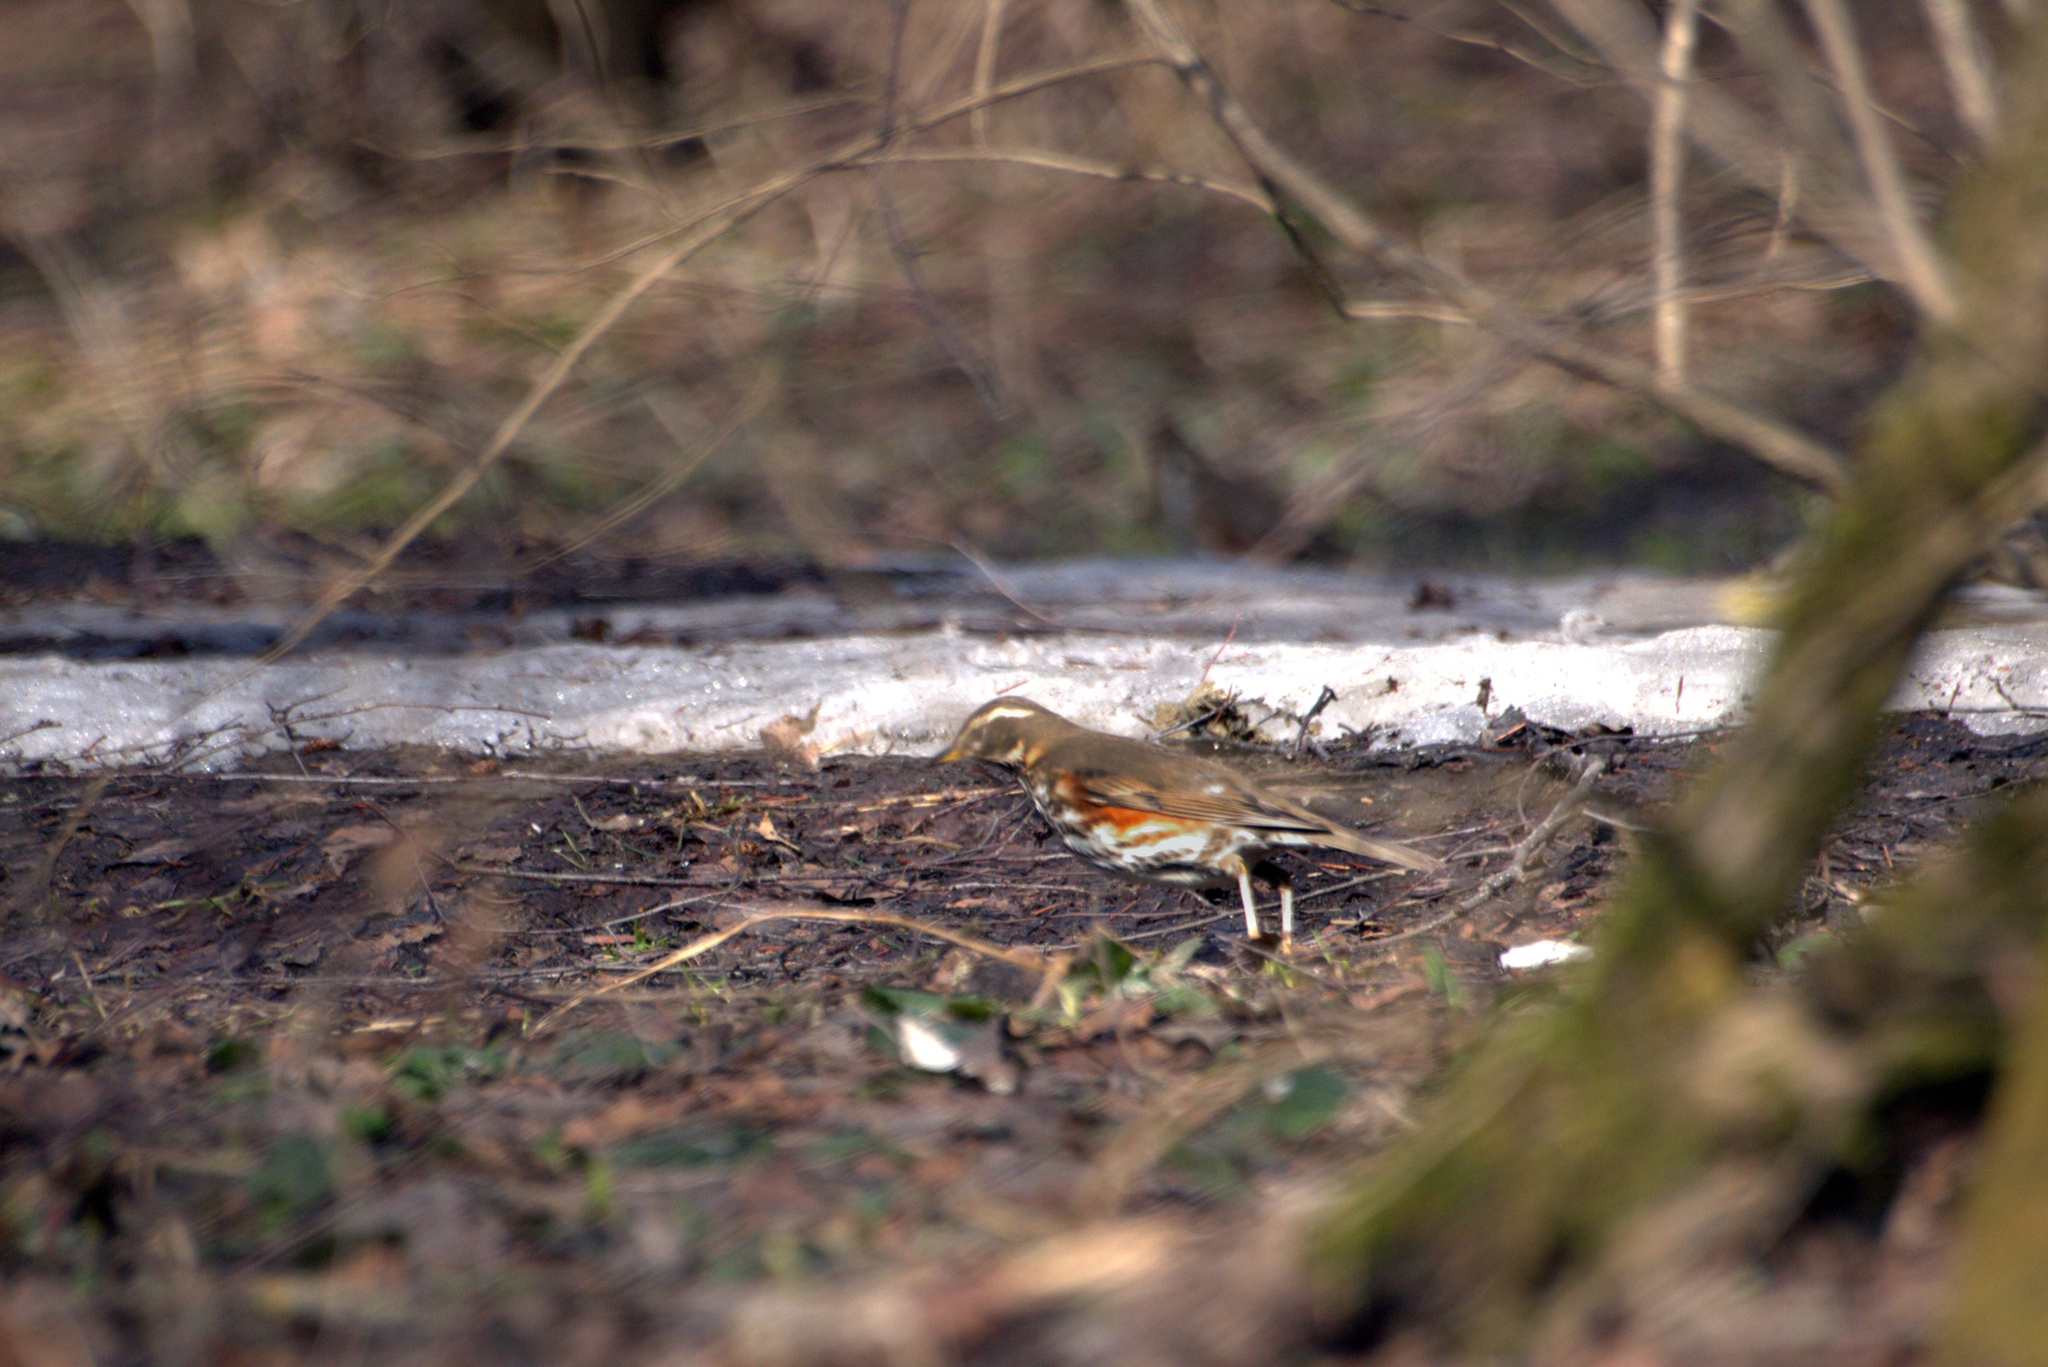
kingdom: Animalia
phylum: Chordata
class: Aves
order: Passeriformes
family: Turdidae
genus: Turdus
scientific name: Turdus iliacus
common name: Redwing
